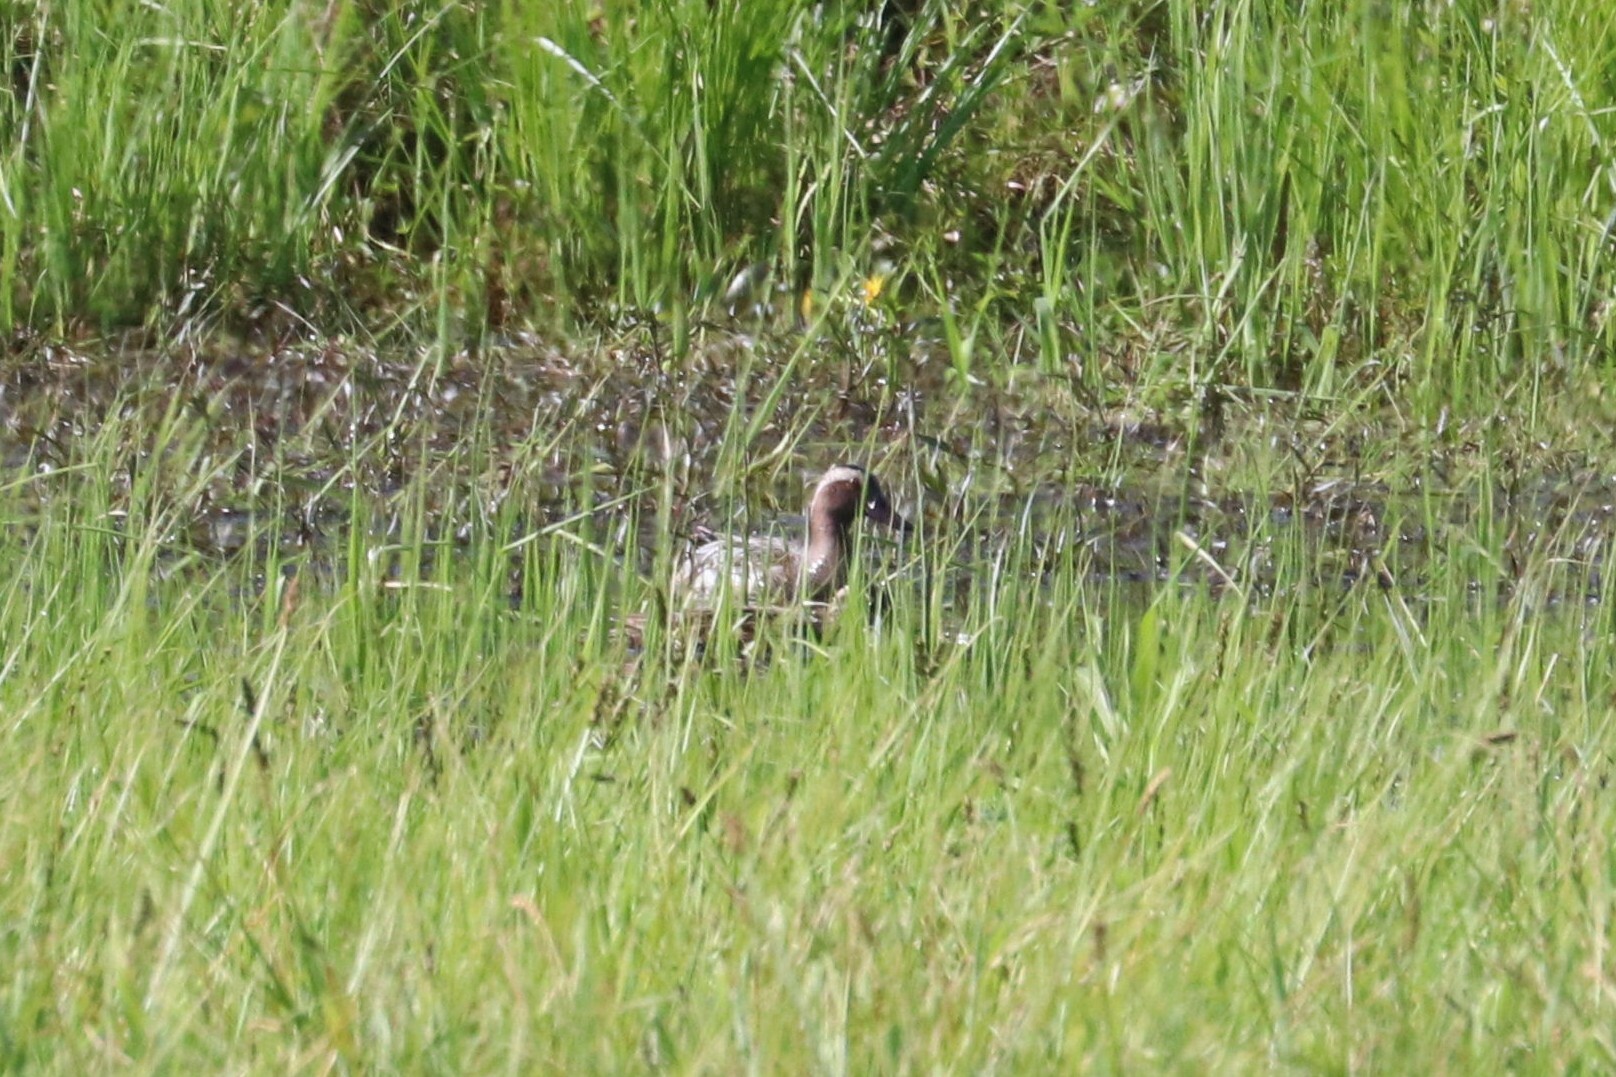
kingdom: Animalia
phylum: Chordata
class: Aves
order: Anseriformes
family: Anatidae
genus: Spatula
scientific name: Spatula querquedula
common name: Garganey
